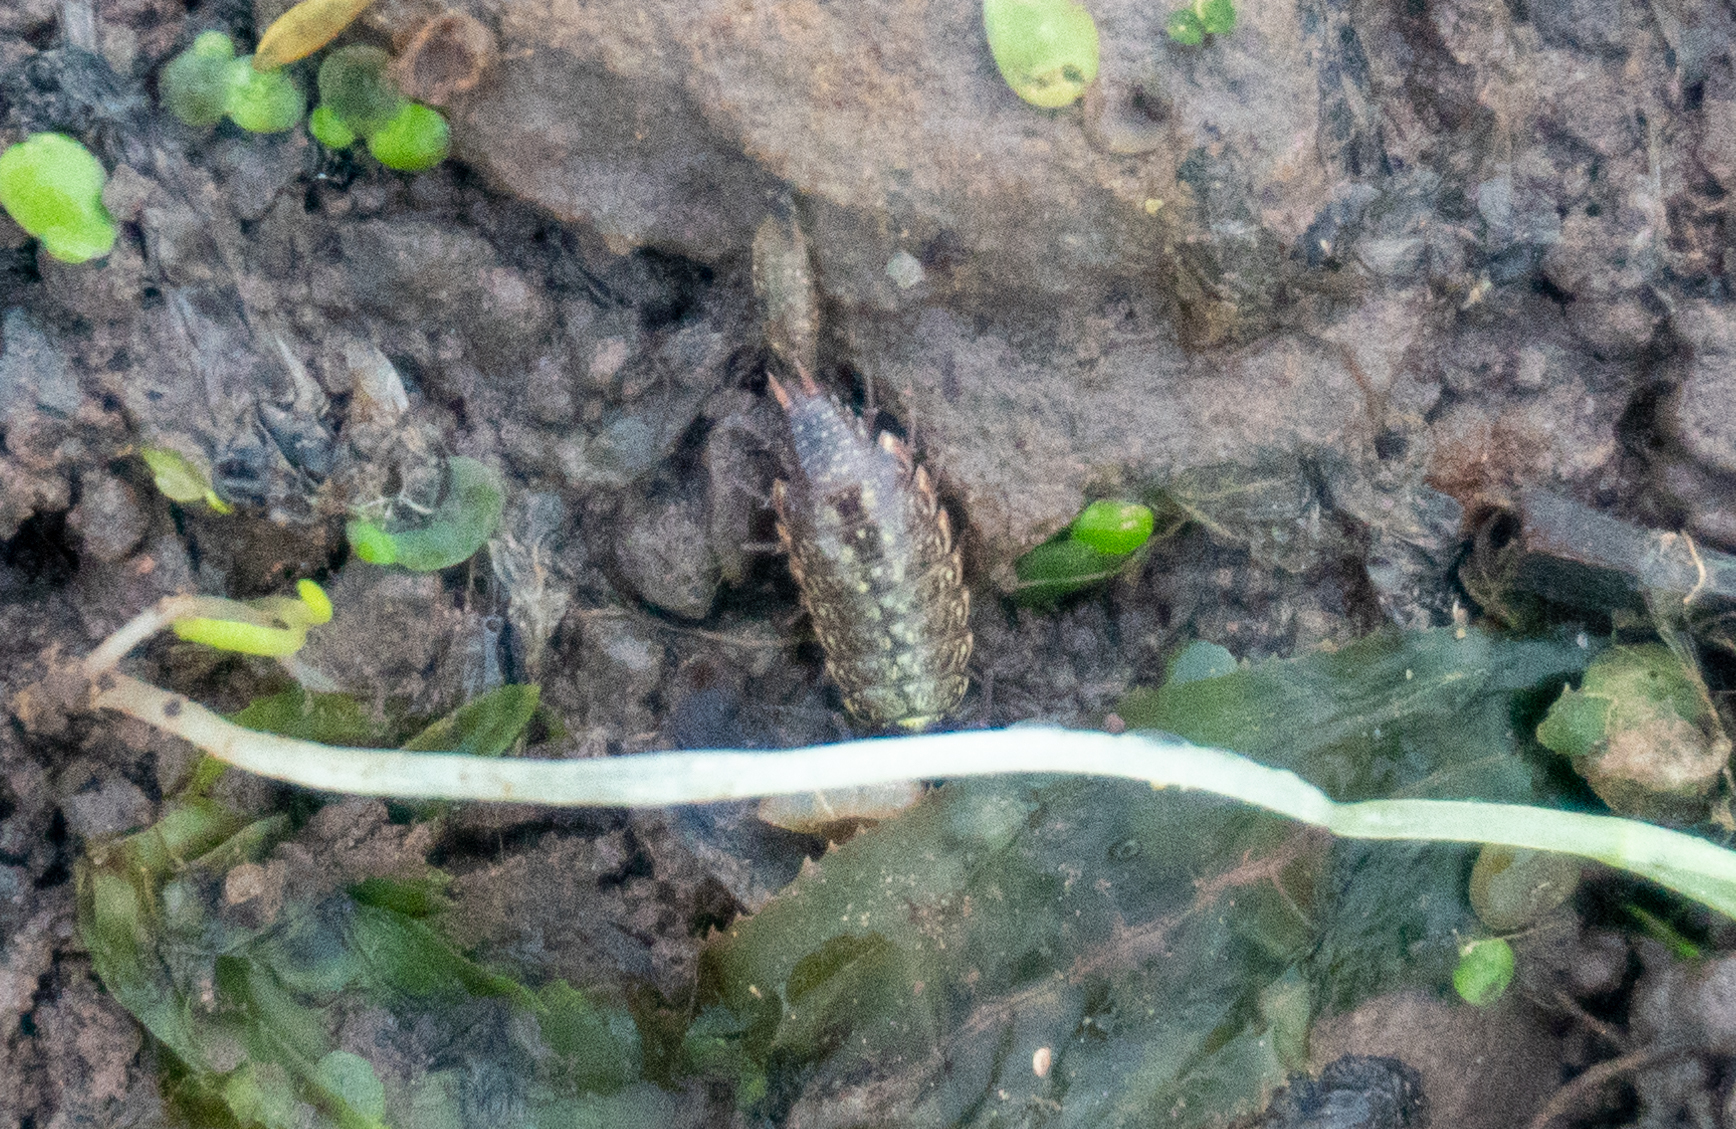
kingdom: Animalia
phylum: Arthropoda
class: Malacostraca
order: Isopoda
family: Philosciidae
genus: Philoscia
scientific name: Philoscia muscorum
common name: Common striped woodlouse
